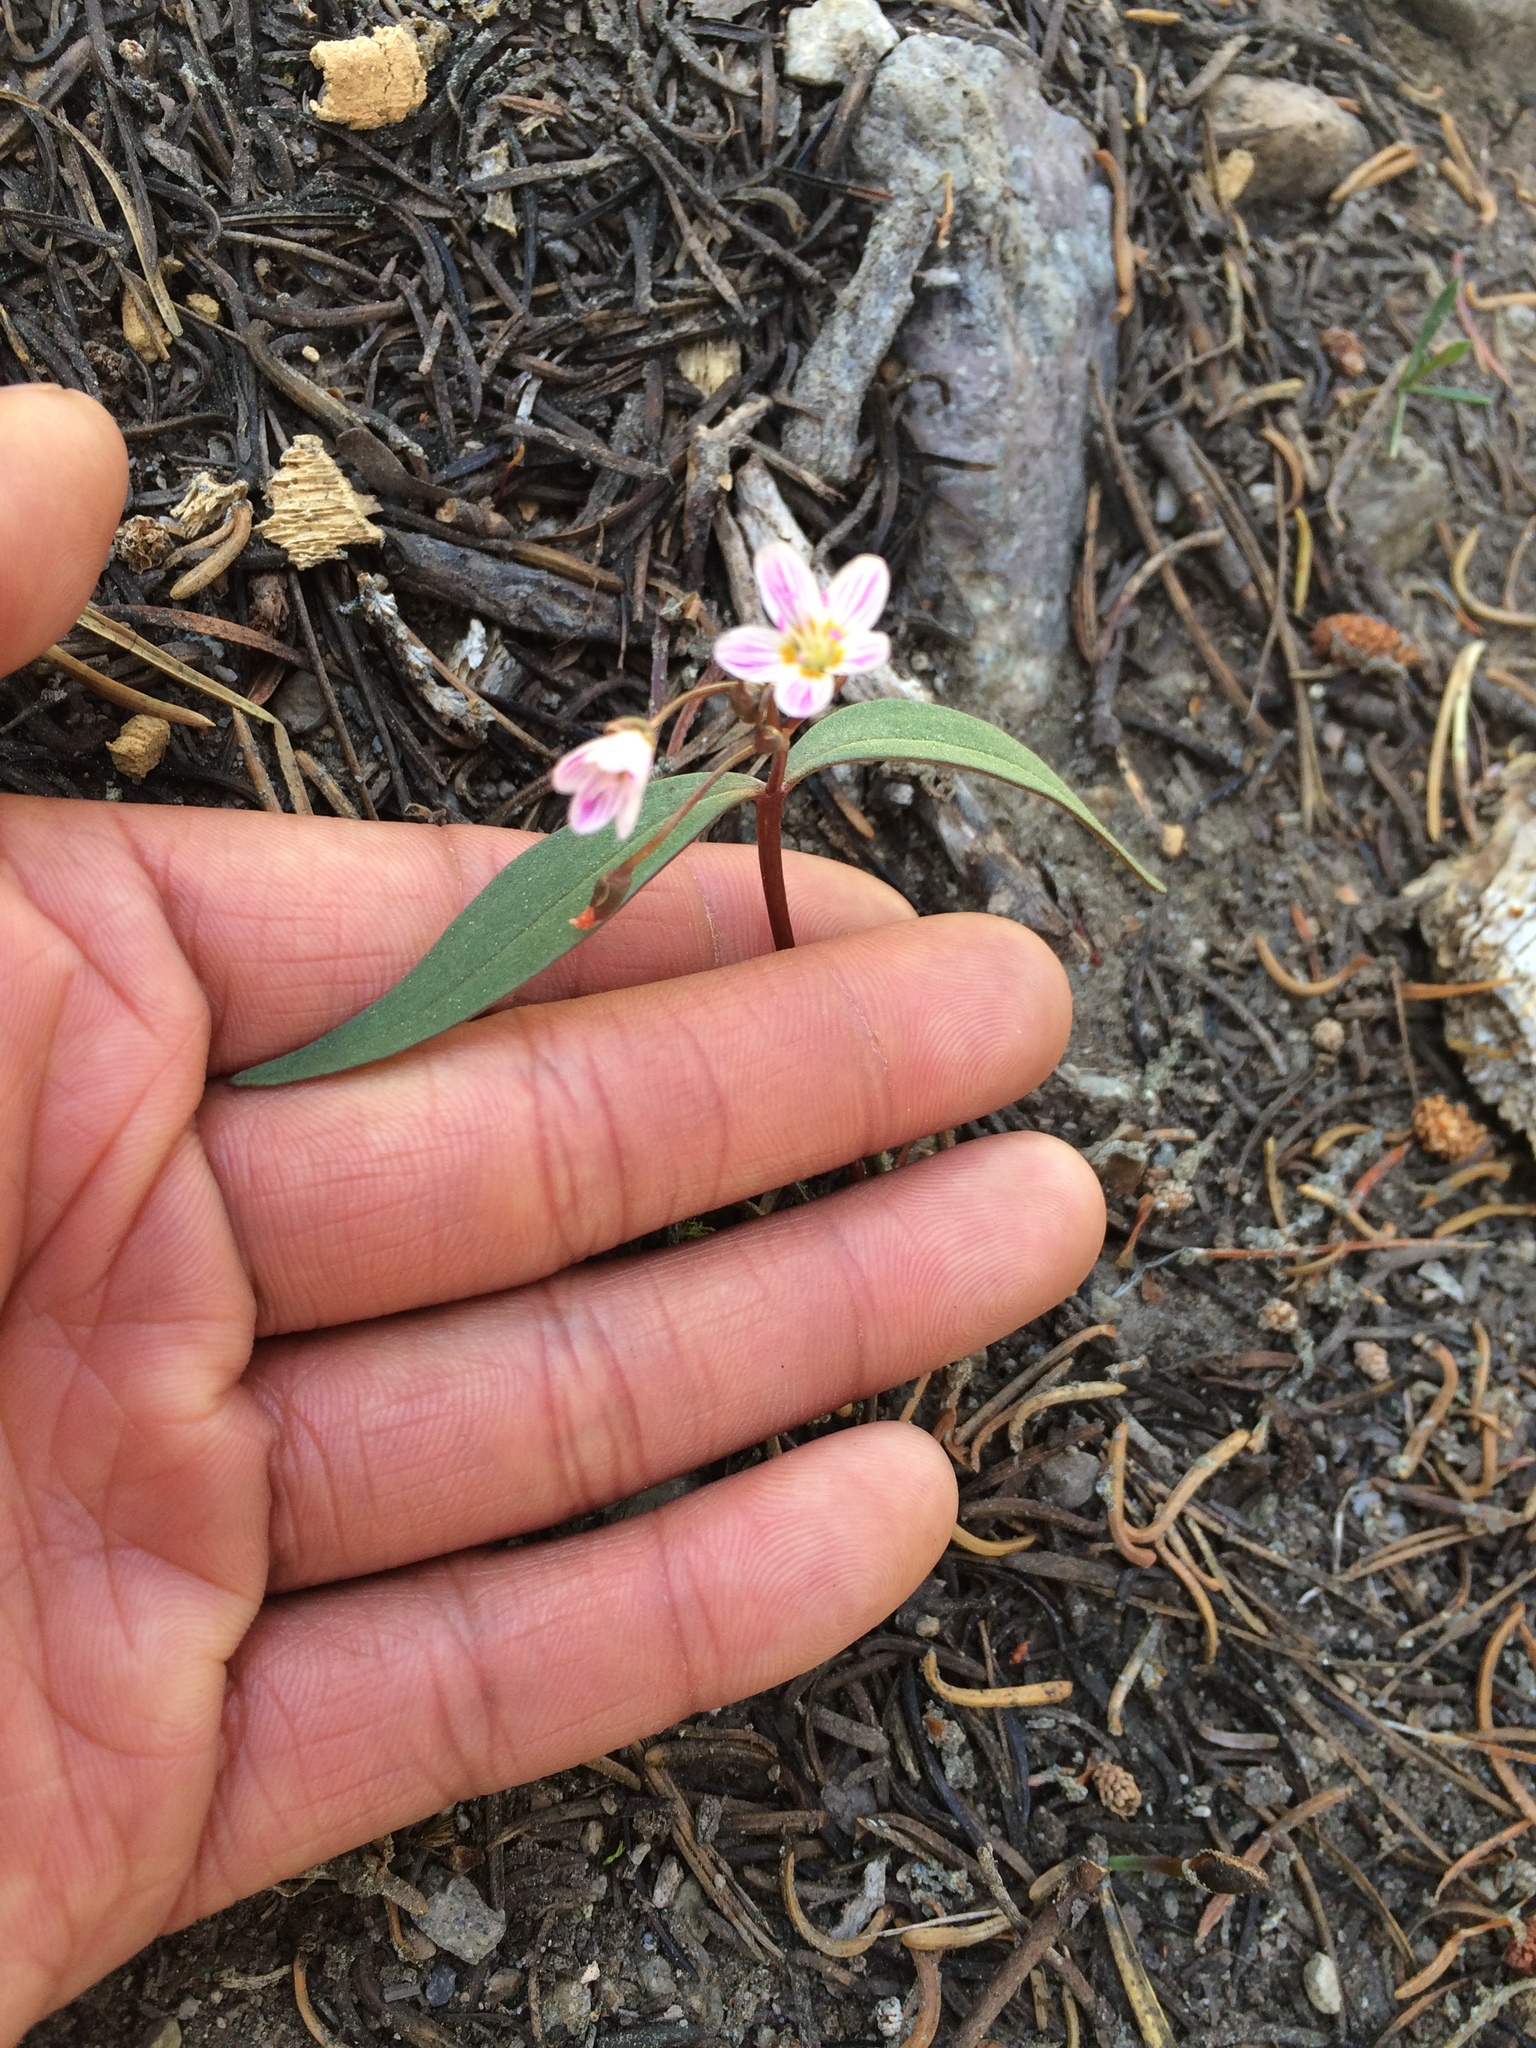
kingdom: Plantae
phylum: Tracheophyta
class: Magnoliopsida
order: Caryophyllales
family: Montiaceae
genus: Claytonia
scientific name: Claytonia lanceolata
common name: Western spring-beauty
